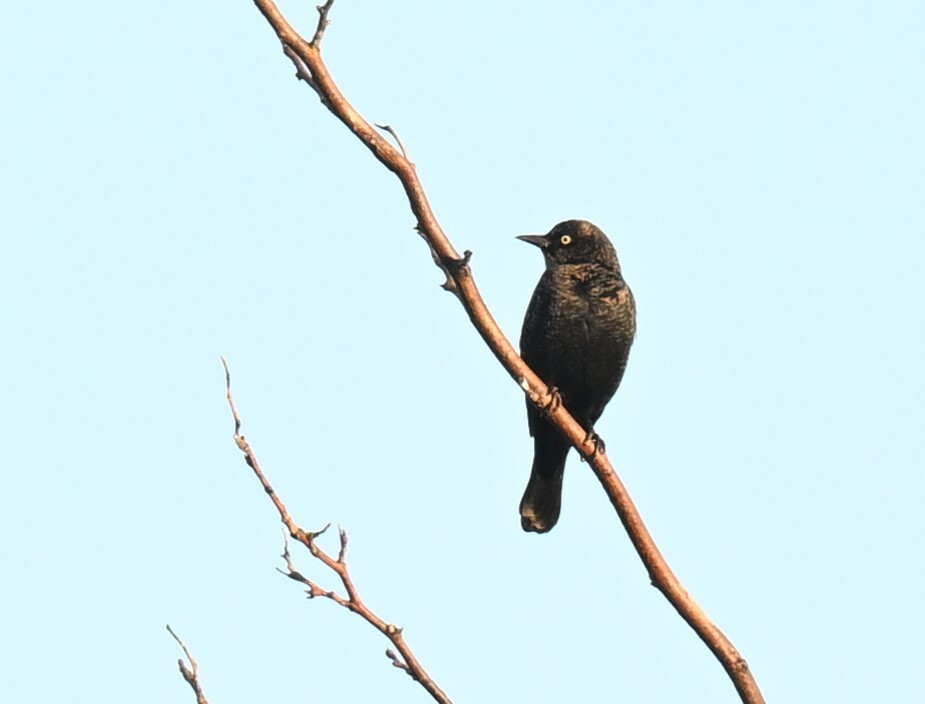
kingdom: Animalia
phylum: Chordata
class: Aves
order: Passeriformes
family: Icteridae
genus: Euphagus
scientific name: Euphagus carolinus
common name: Rusty blackbird
